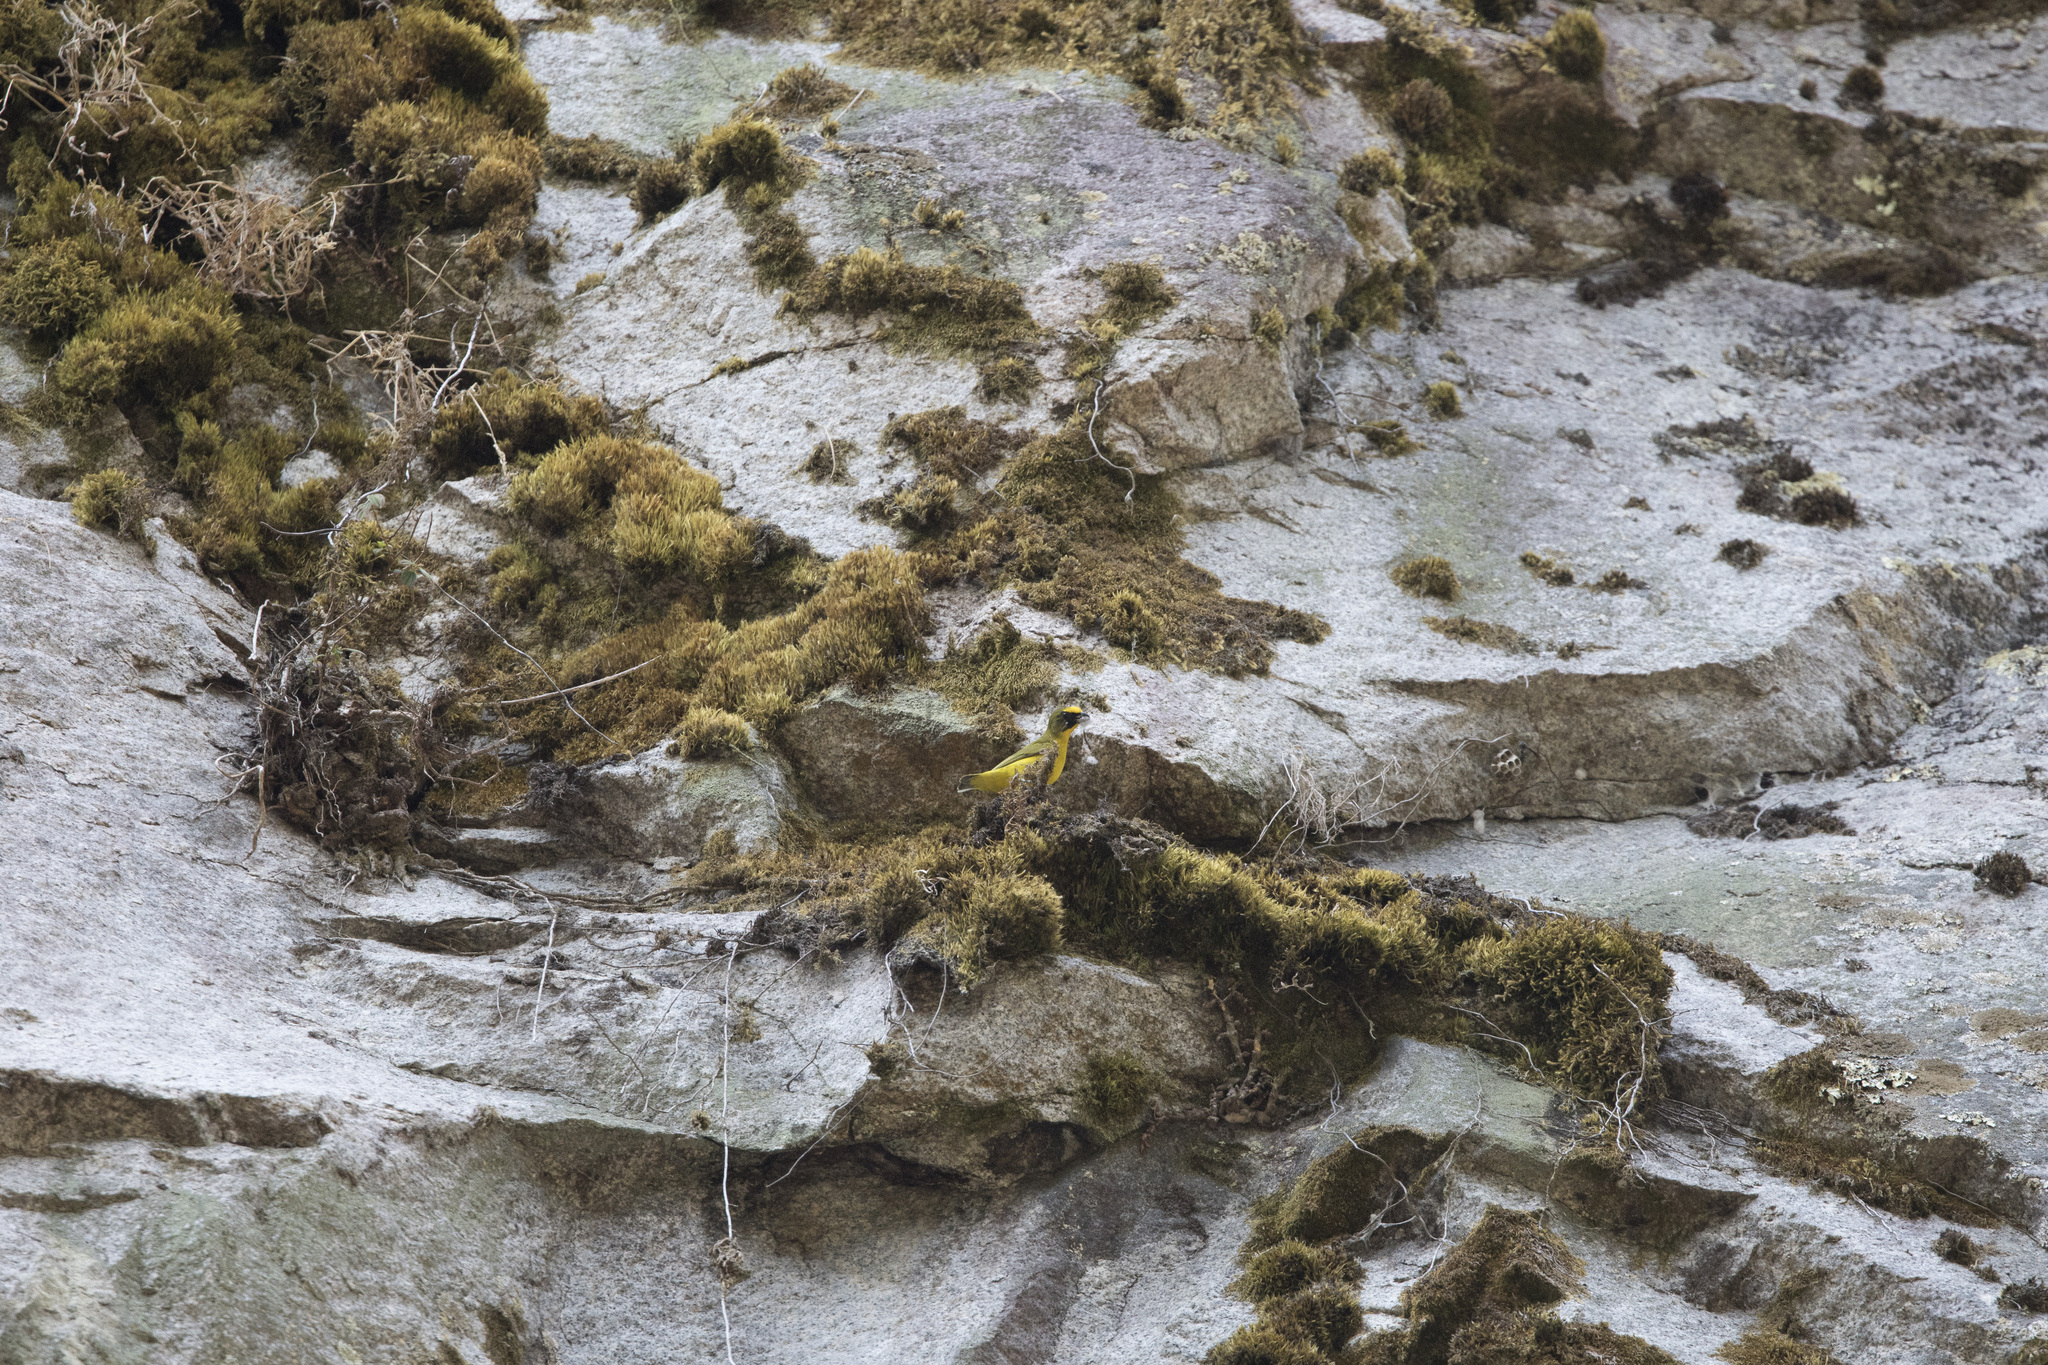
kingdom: Animalia
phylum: Chordata
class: Aves
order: Passeriformes
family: Fringillidae
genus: Euphonia
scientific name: Euphonia laniirostris
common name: Thick-billed euphonia
